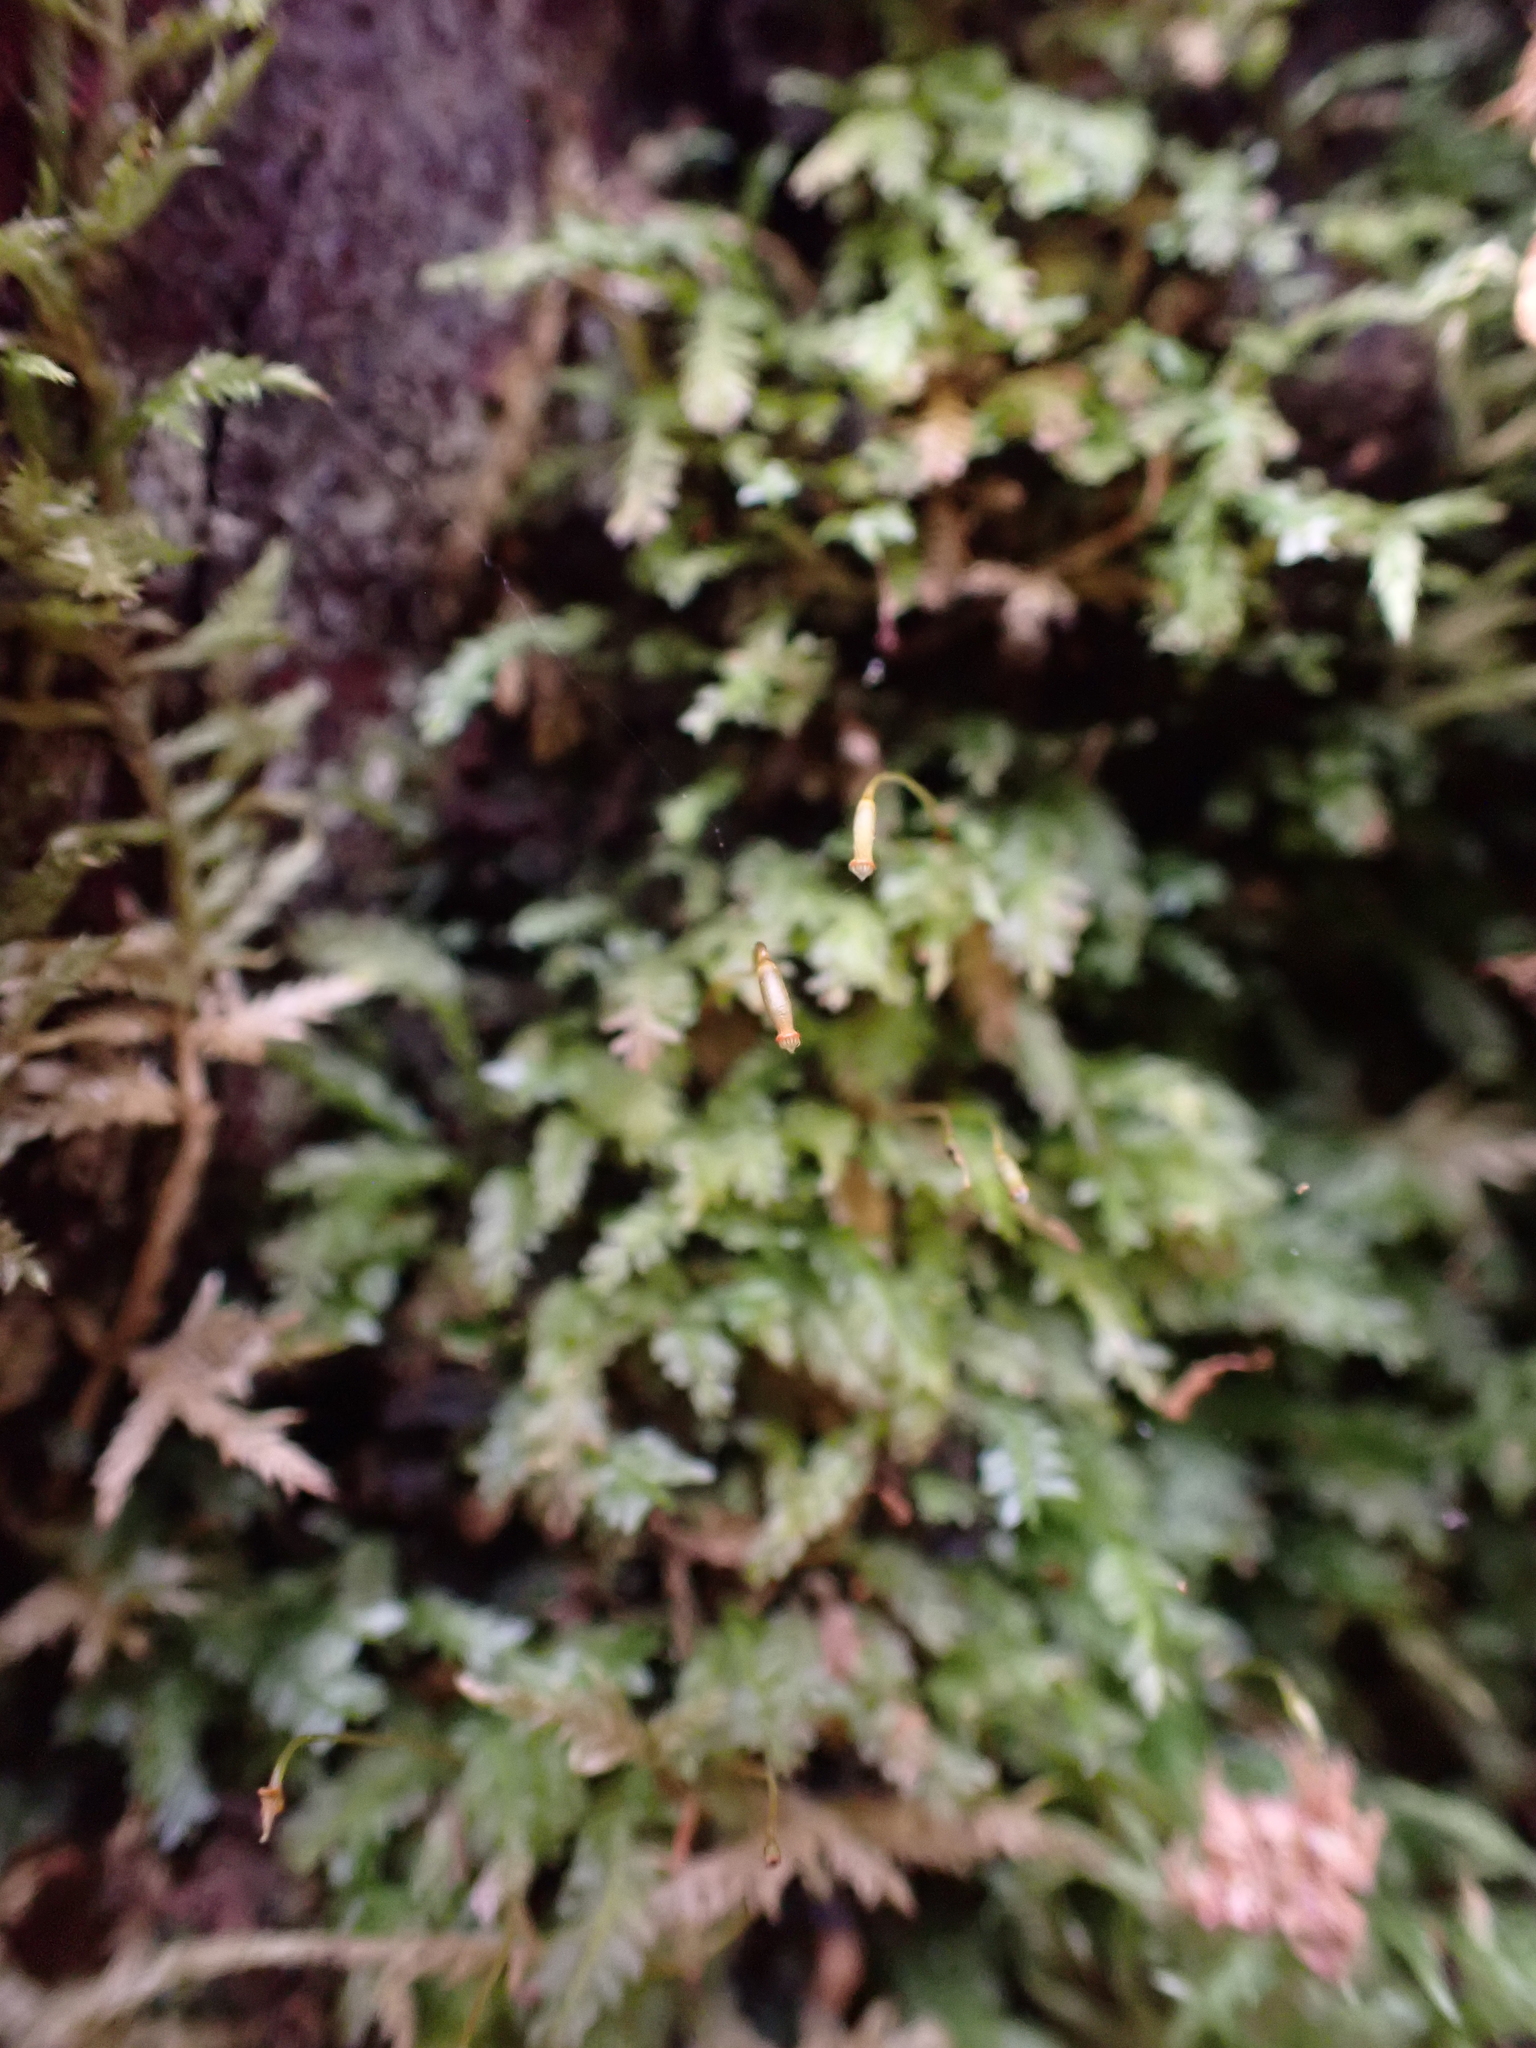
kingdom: Plantae
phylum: Bryophyta
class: Bryopsida
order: Rhizogoniales
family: Rhizogoniaceae
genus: Rhizogonium
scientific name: Rhizogonium distichum
